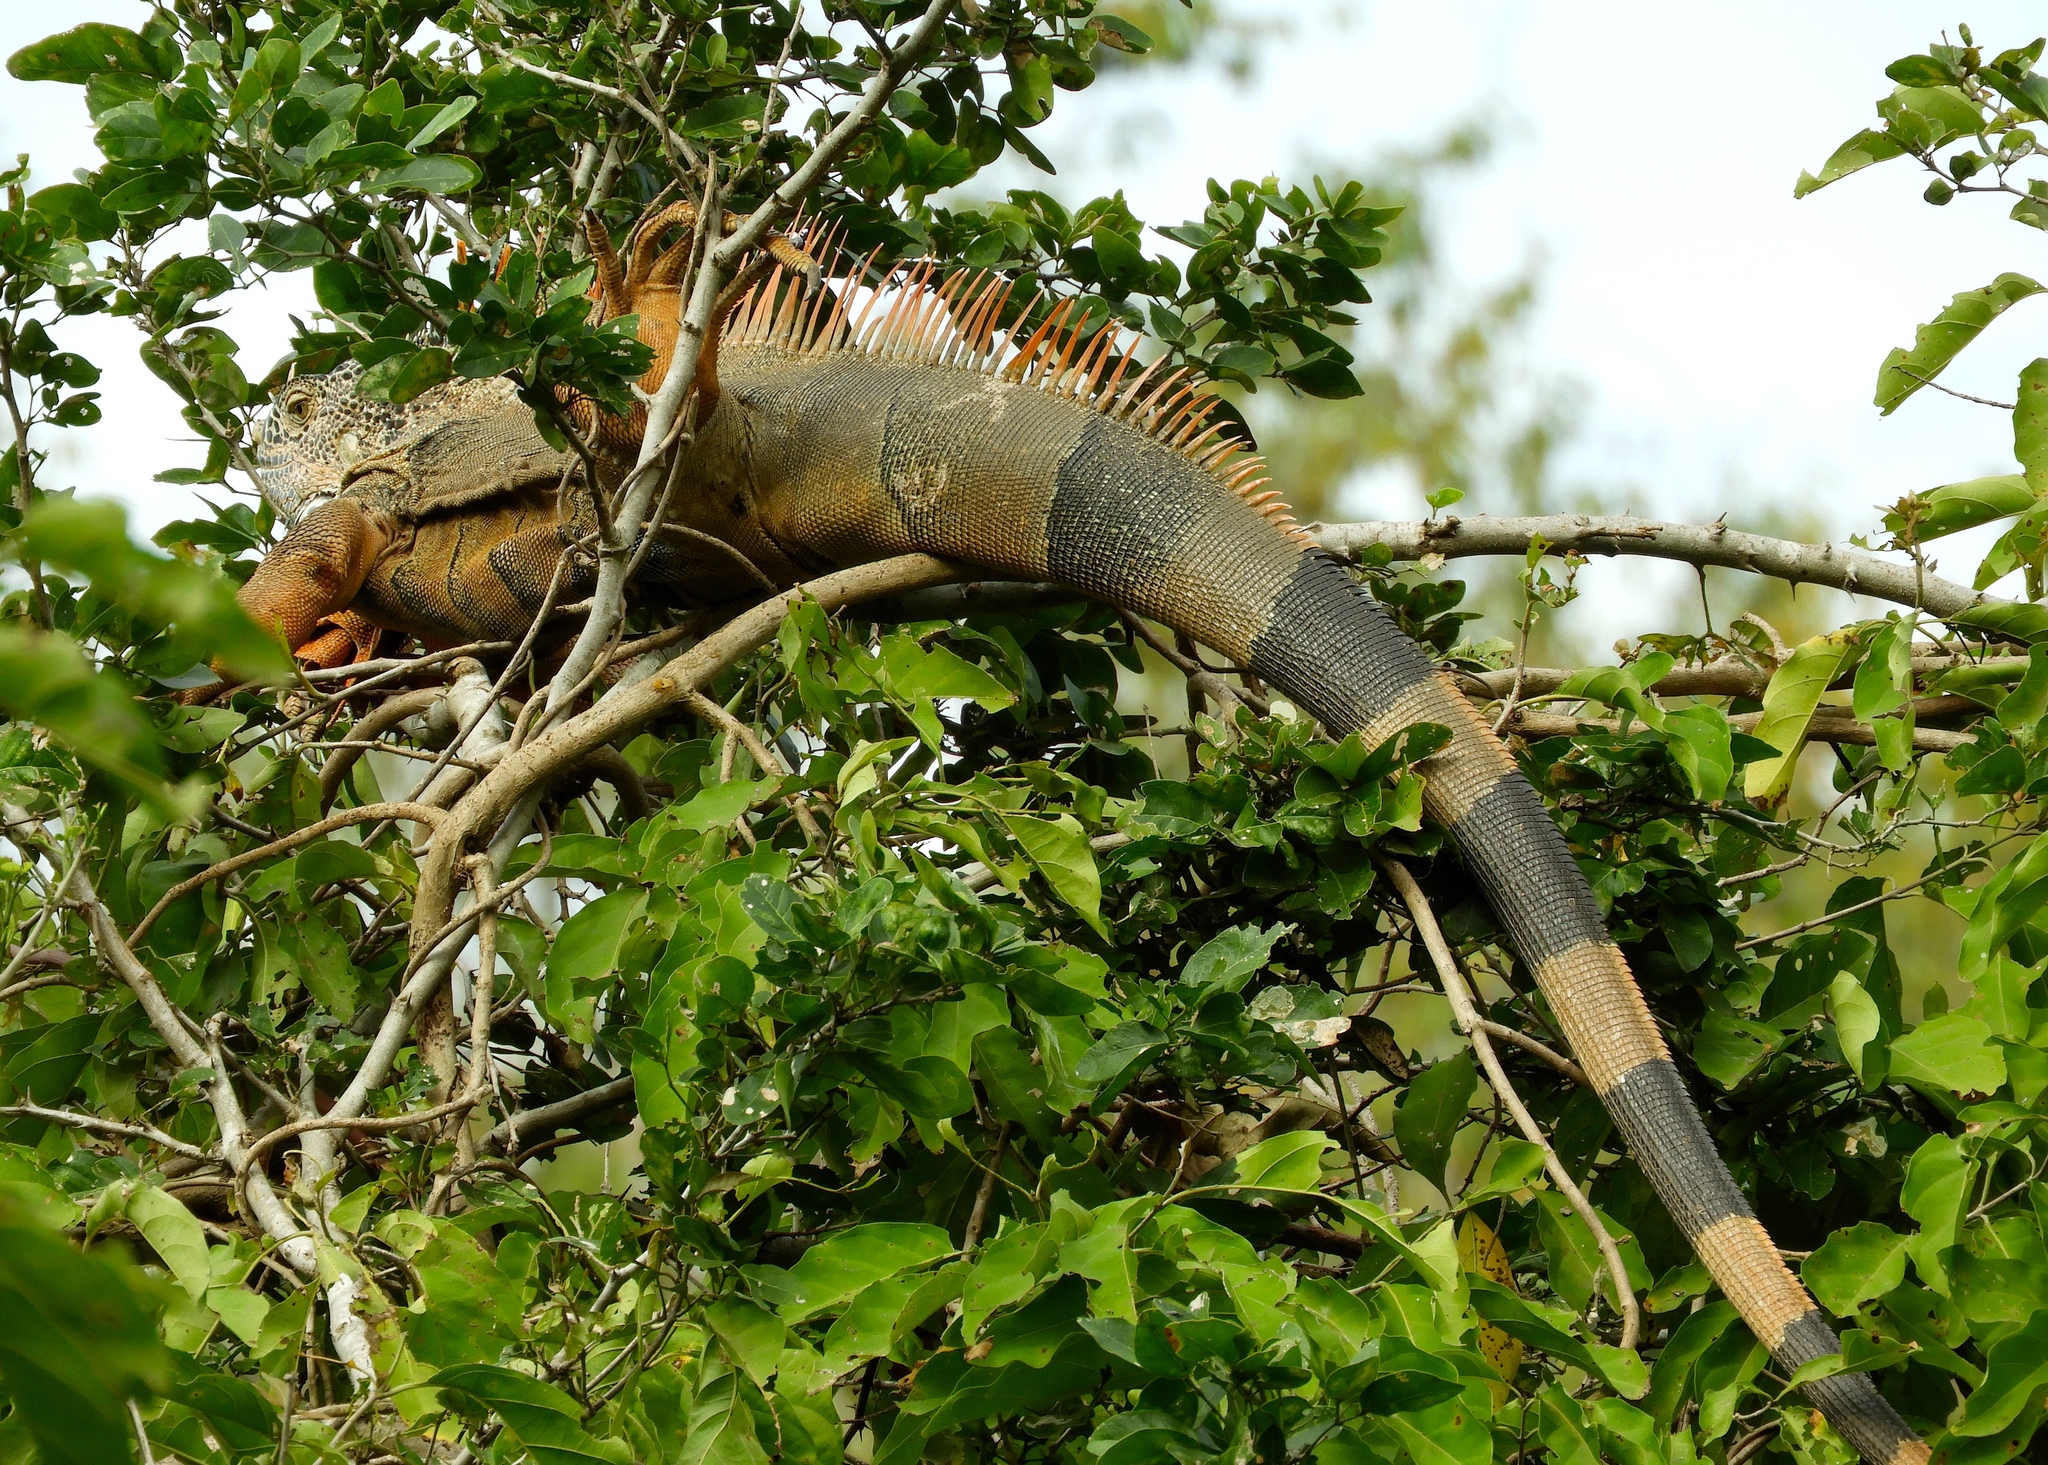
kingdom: Animalia
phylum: Chordata
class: Squamata
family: Iguanidae
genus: Iguana
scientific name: Iguana iguana
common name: Green iguana
